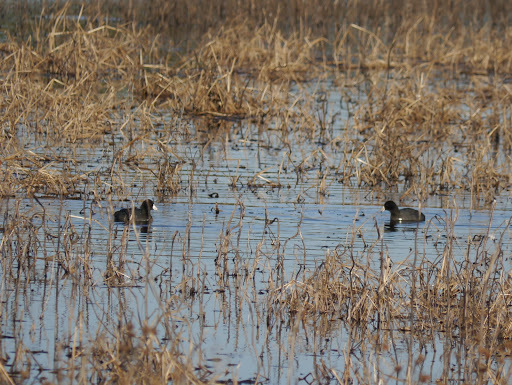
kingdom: Animalia
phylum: Chordata
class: Aves
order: Gruiformes
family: Rallidae
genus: Fulica
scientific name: Fulica americana
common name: American coot
